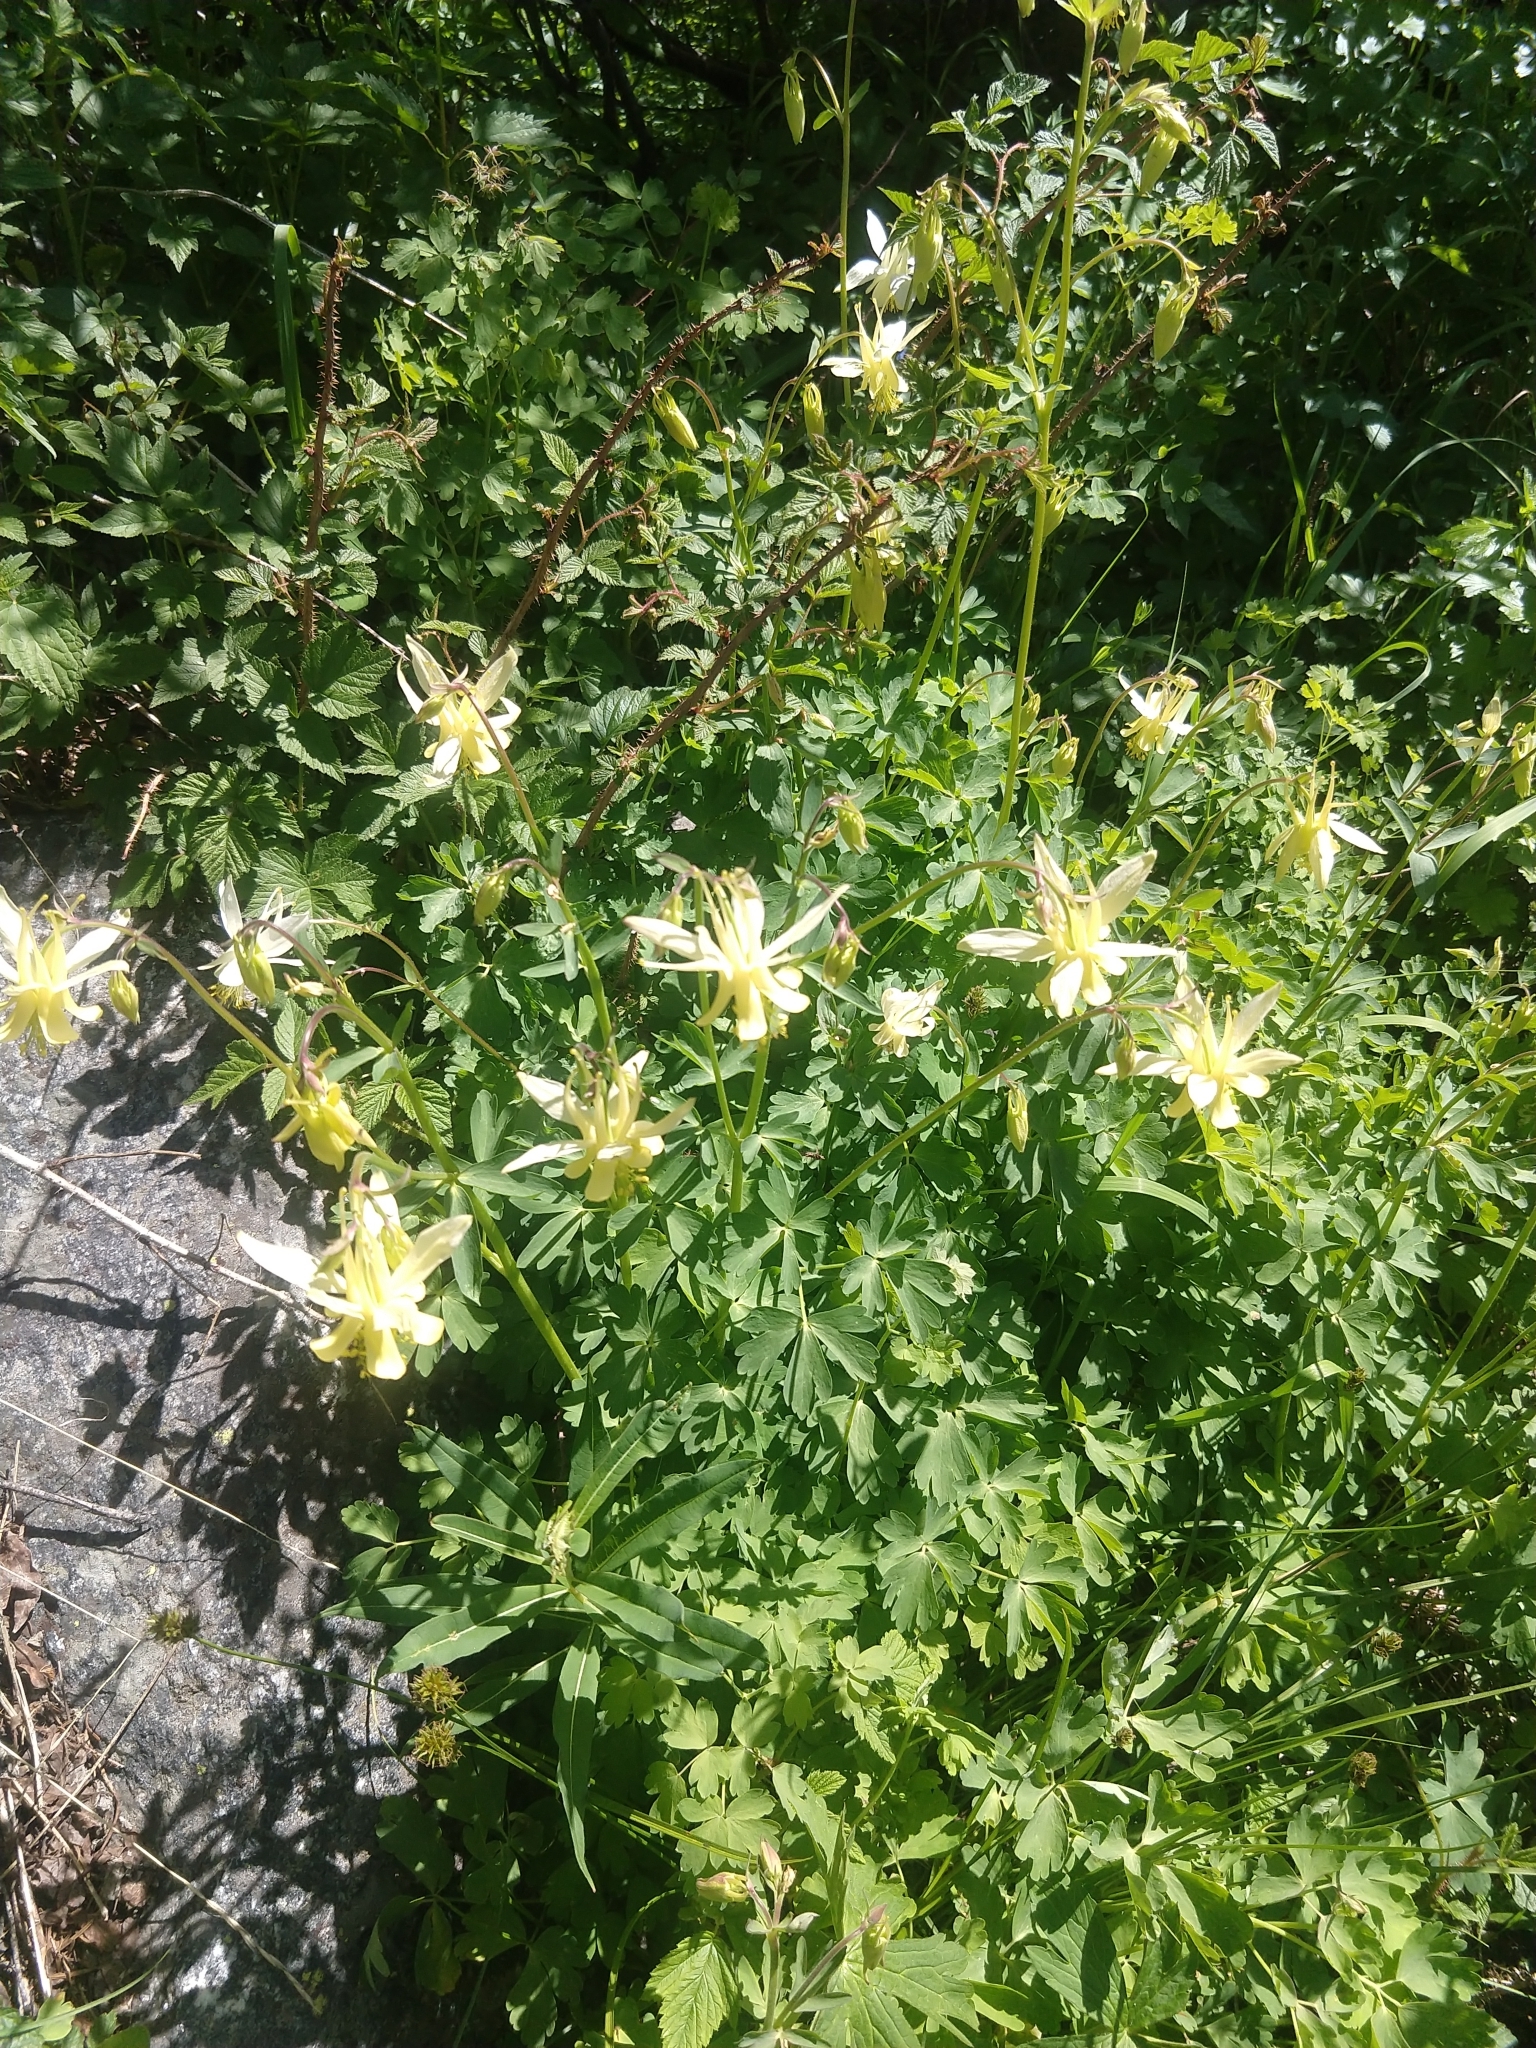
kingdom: Plantae
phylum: Tracheophyta
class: Magnoliopsida
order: Ranunculales
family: Ranunculaceae
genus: Aquilegia
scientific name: Aquilegia flavescens
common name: Yellow columbine
